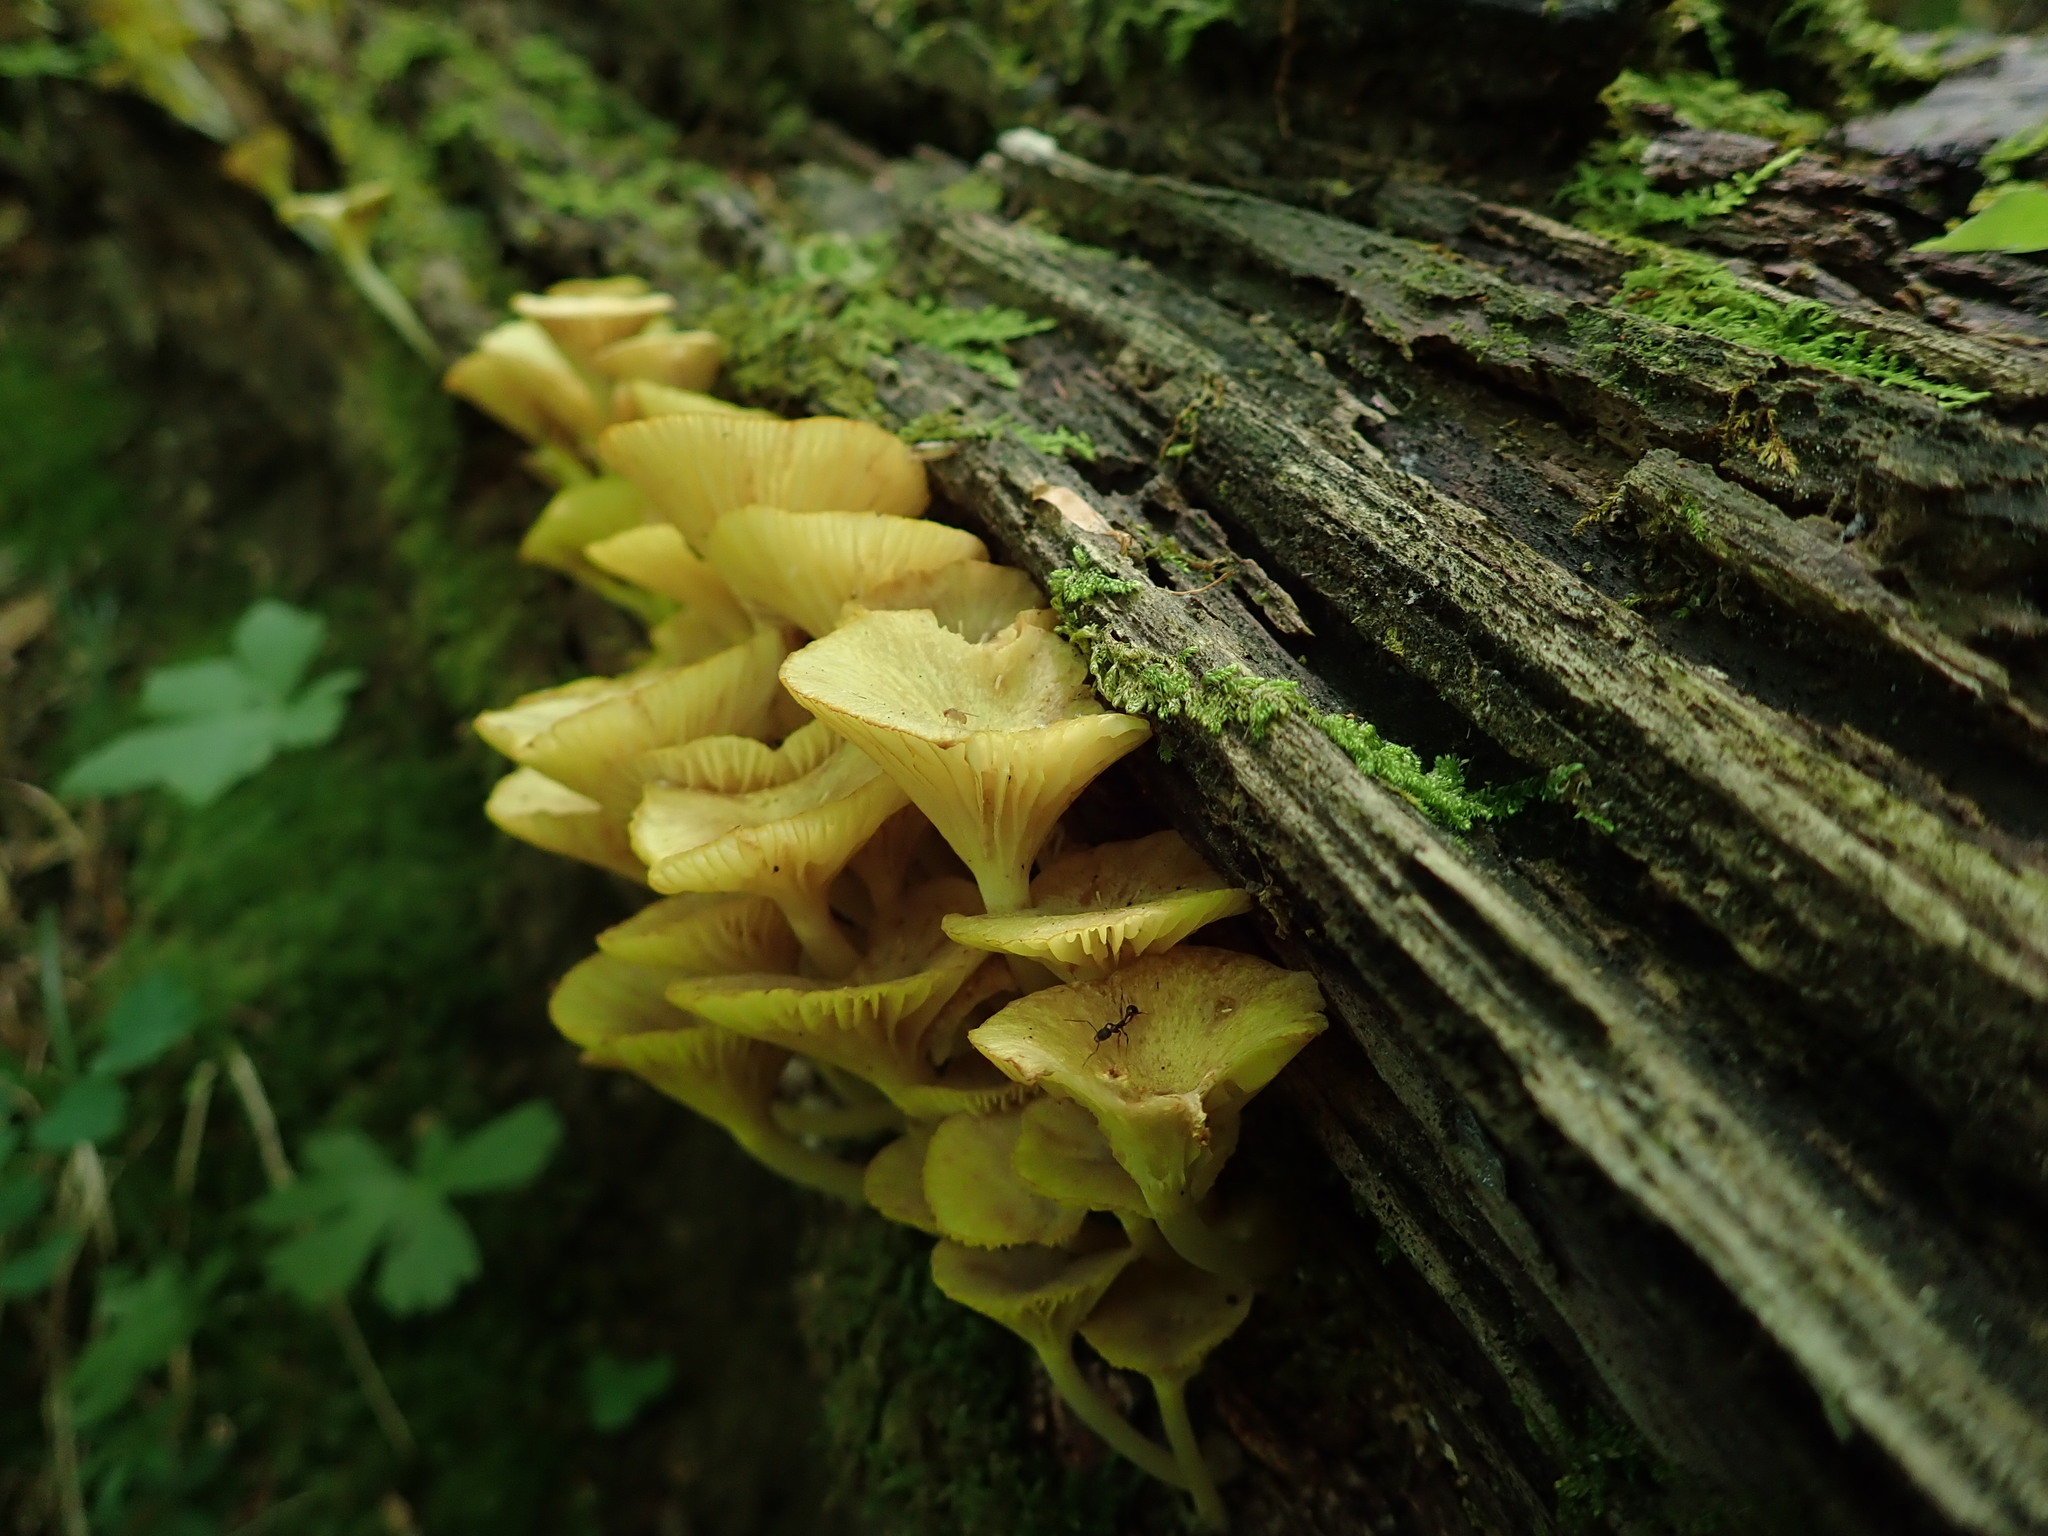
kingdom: Fungi
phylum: Basidiomycota
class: Agaricomycetes
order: Agaricales
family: Marasmiaceae
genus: Gerronema
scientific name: Gerronema strombodes
